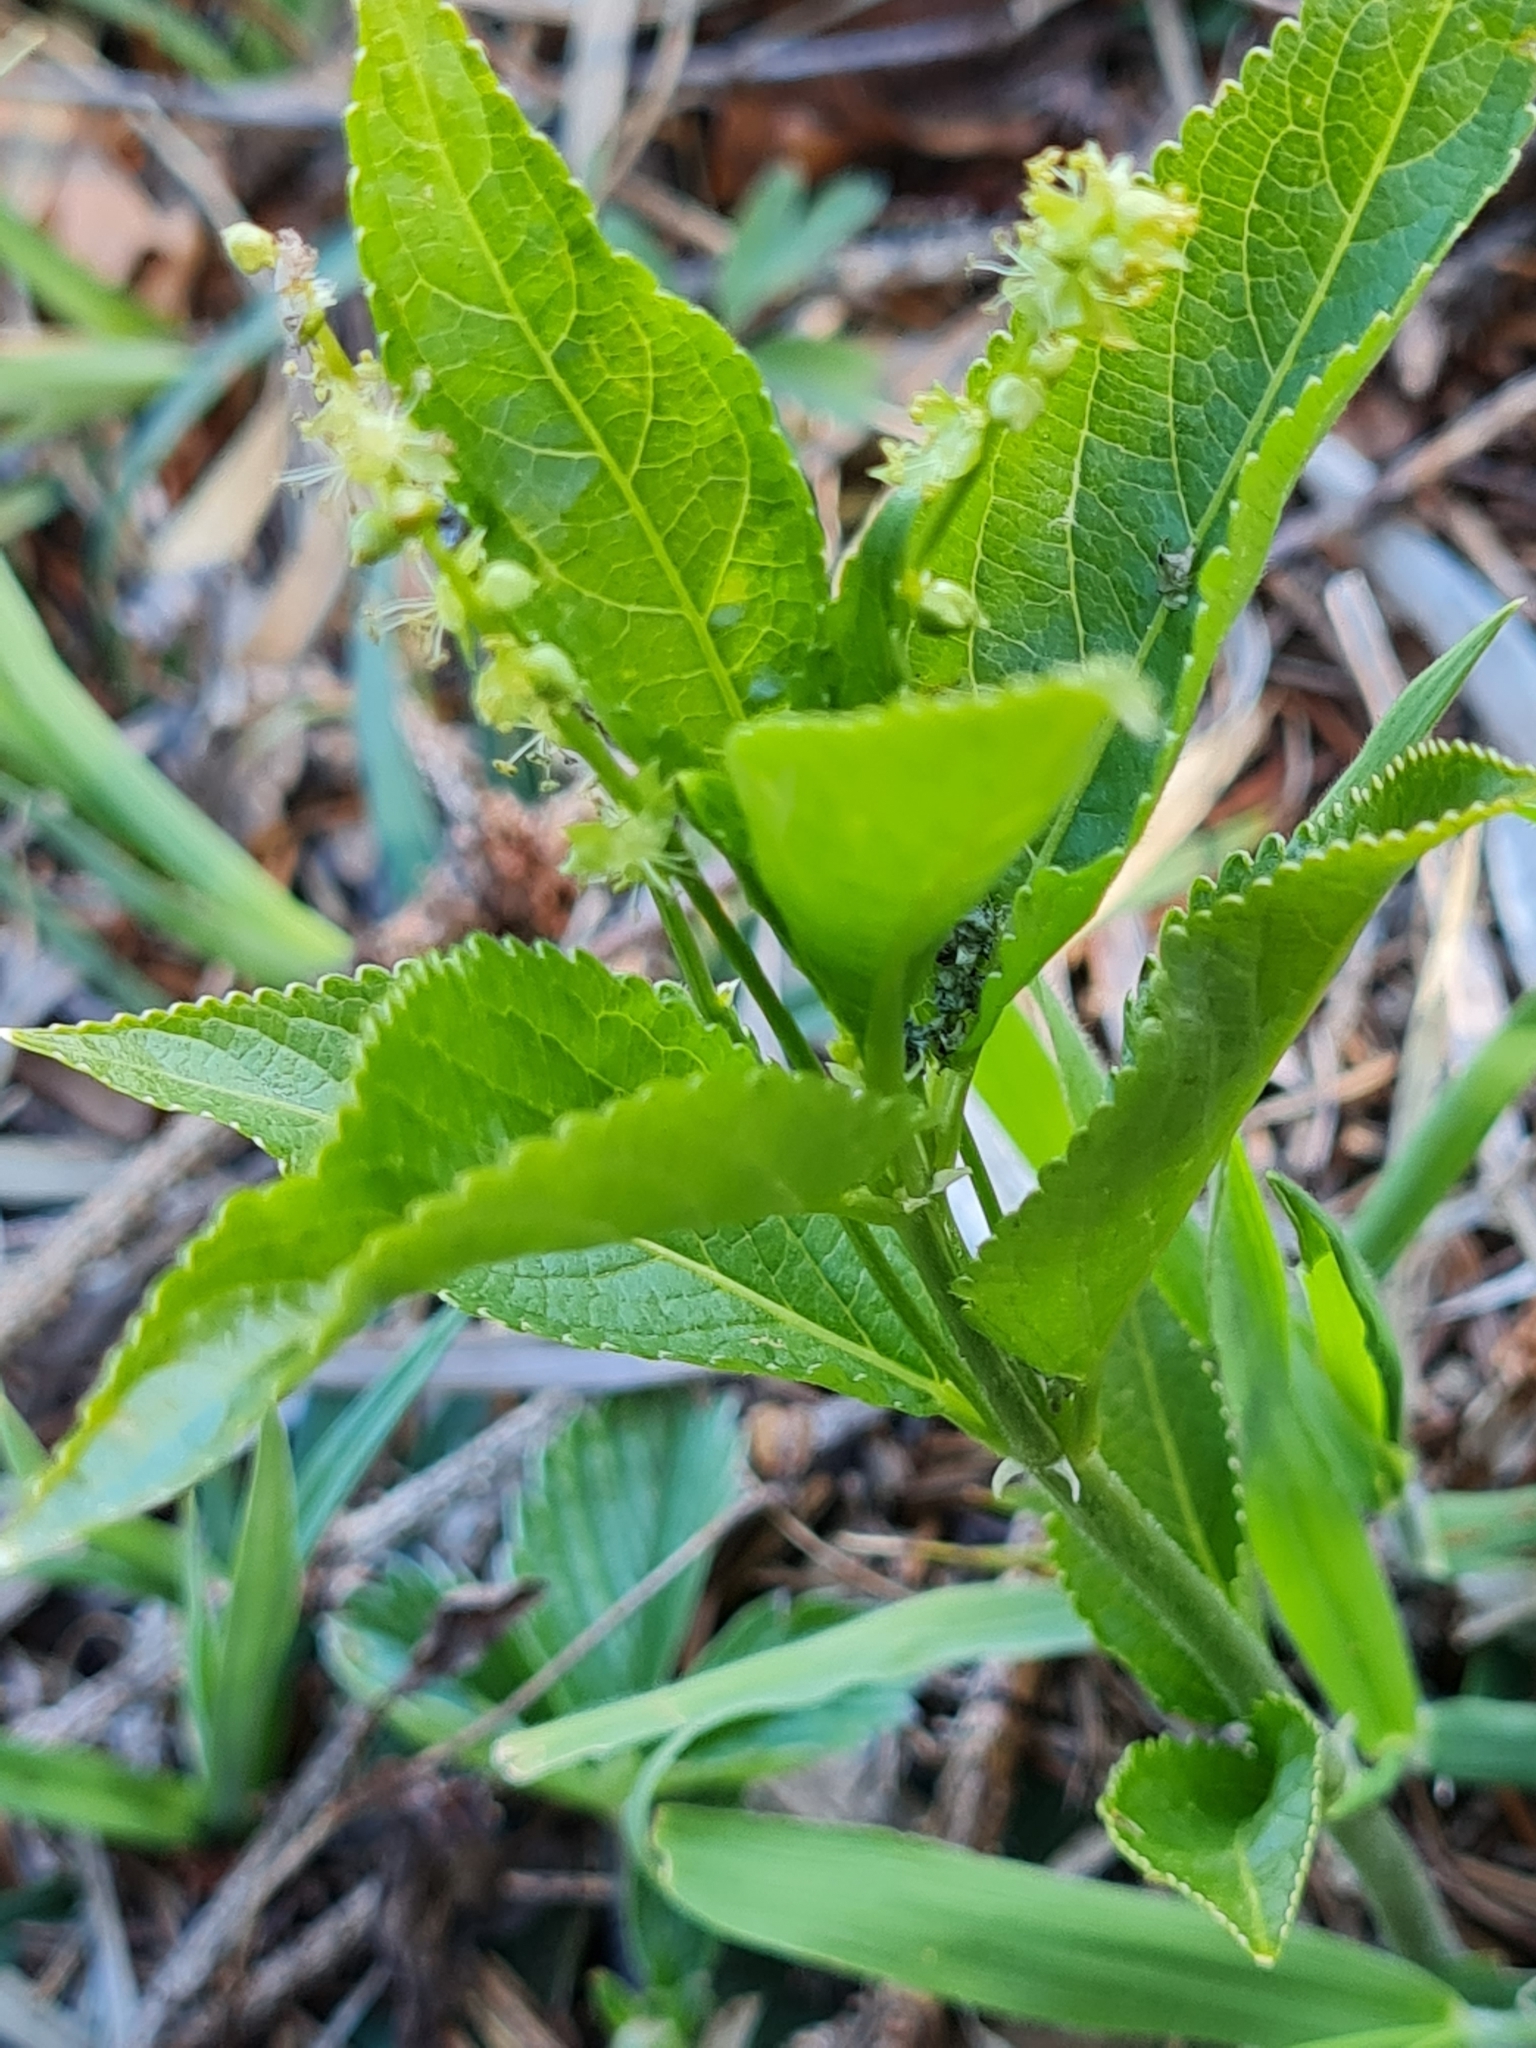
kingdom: Plantae
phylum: Tracheophyta
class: Magnoliopsida
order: Malpighiales
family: Euphorbiaceae
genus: Mercurialis
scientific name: Mercurialis perennis
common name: Dog mercury
